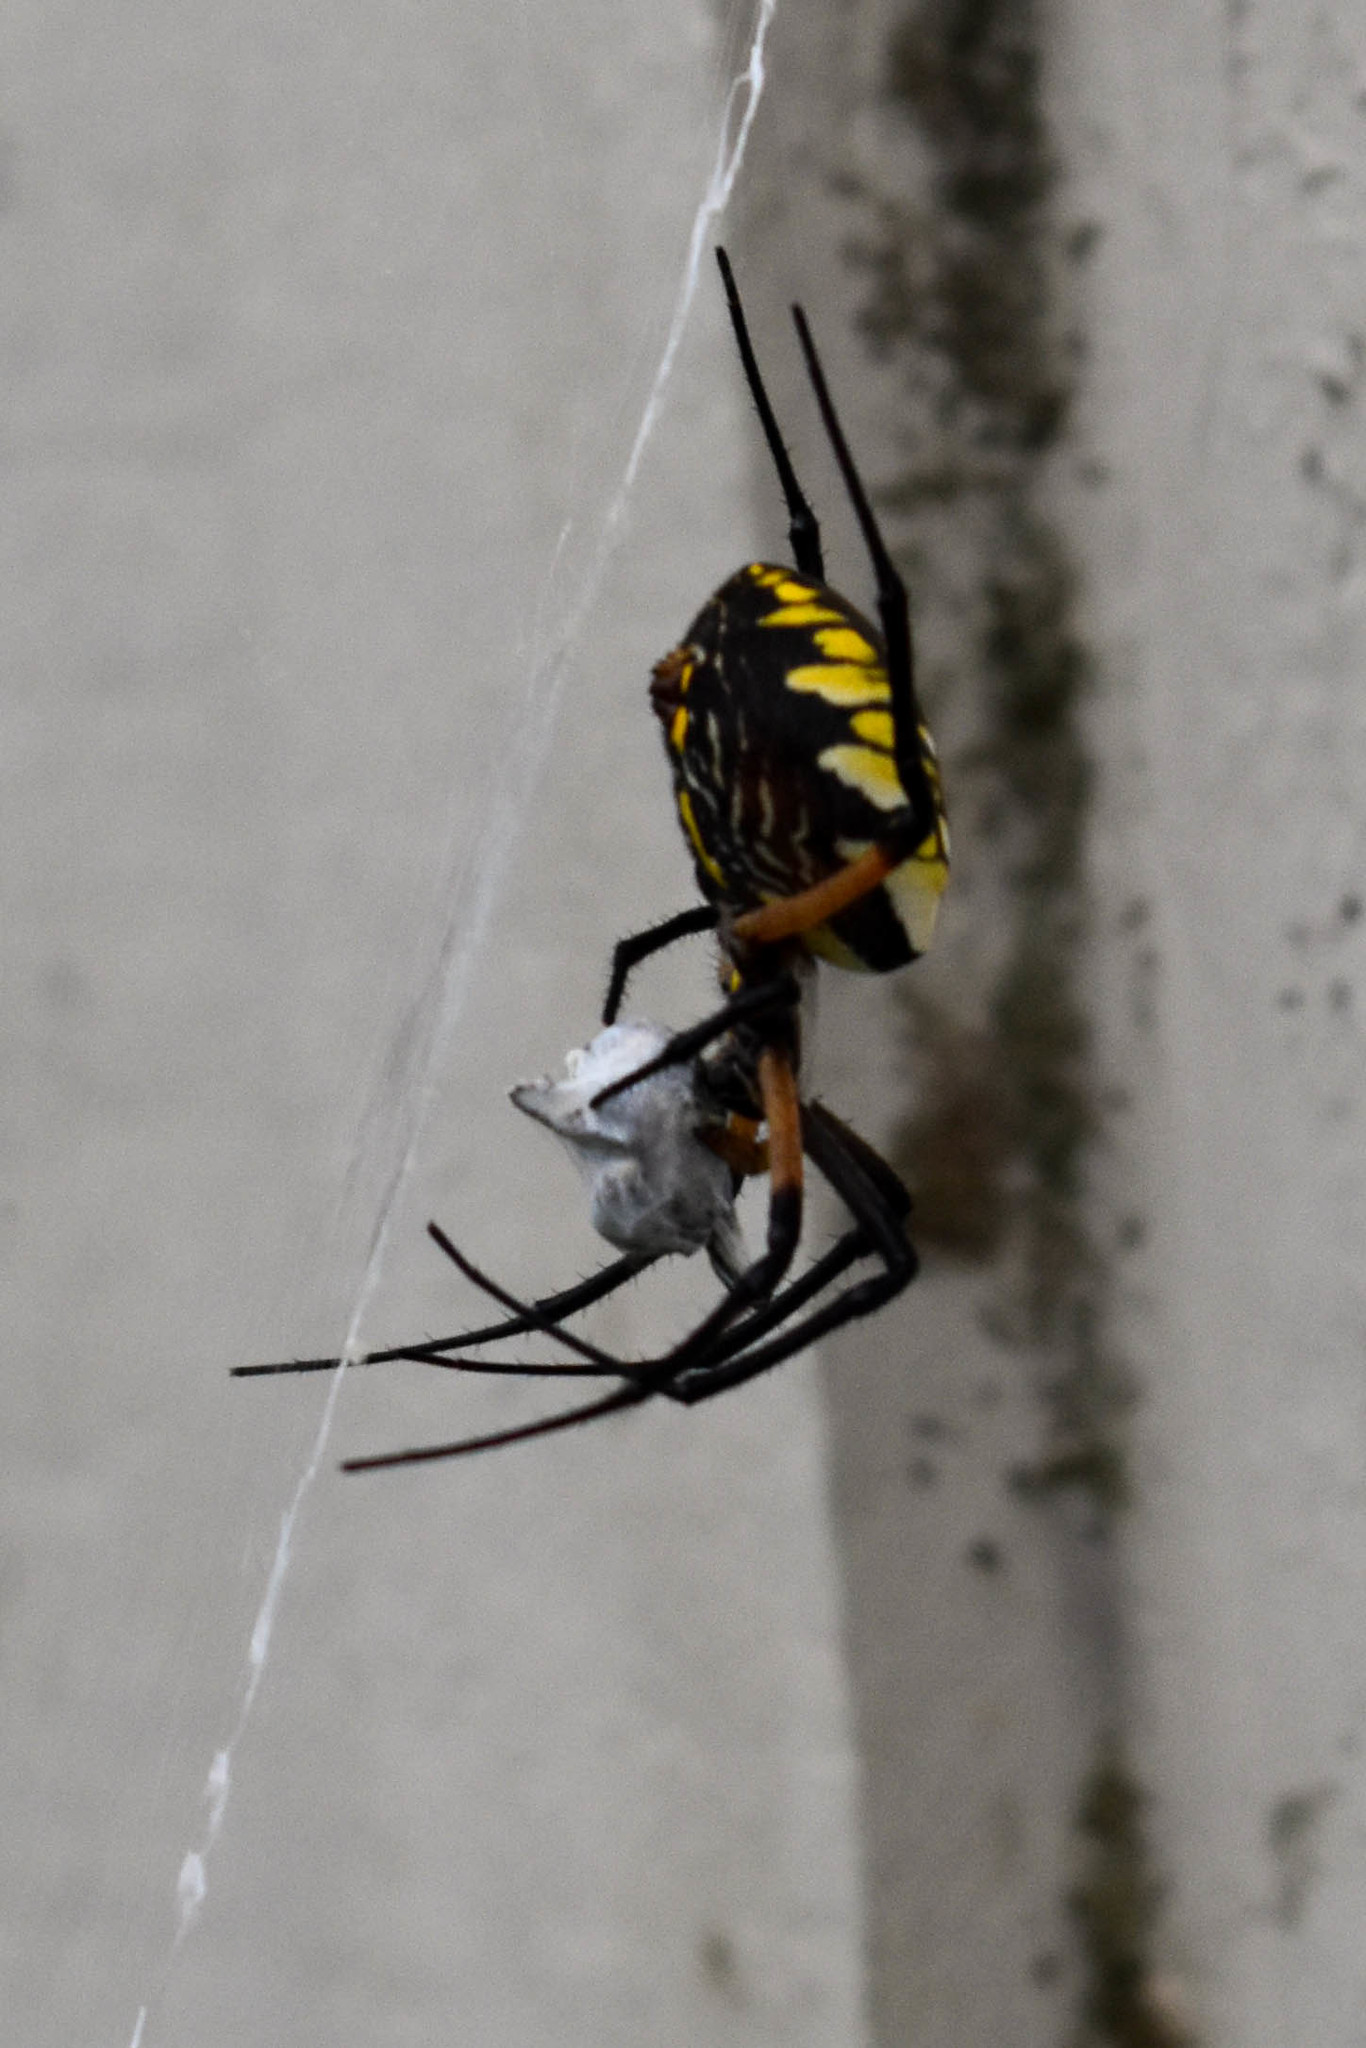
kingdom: Animalia
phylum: Arthropoda
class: Arachnida
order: Araneae
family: Araneidae
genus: Argiope
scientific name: Argiope aurantia
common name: Orb weavers
